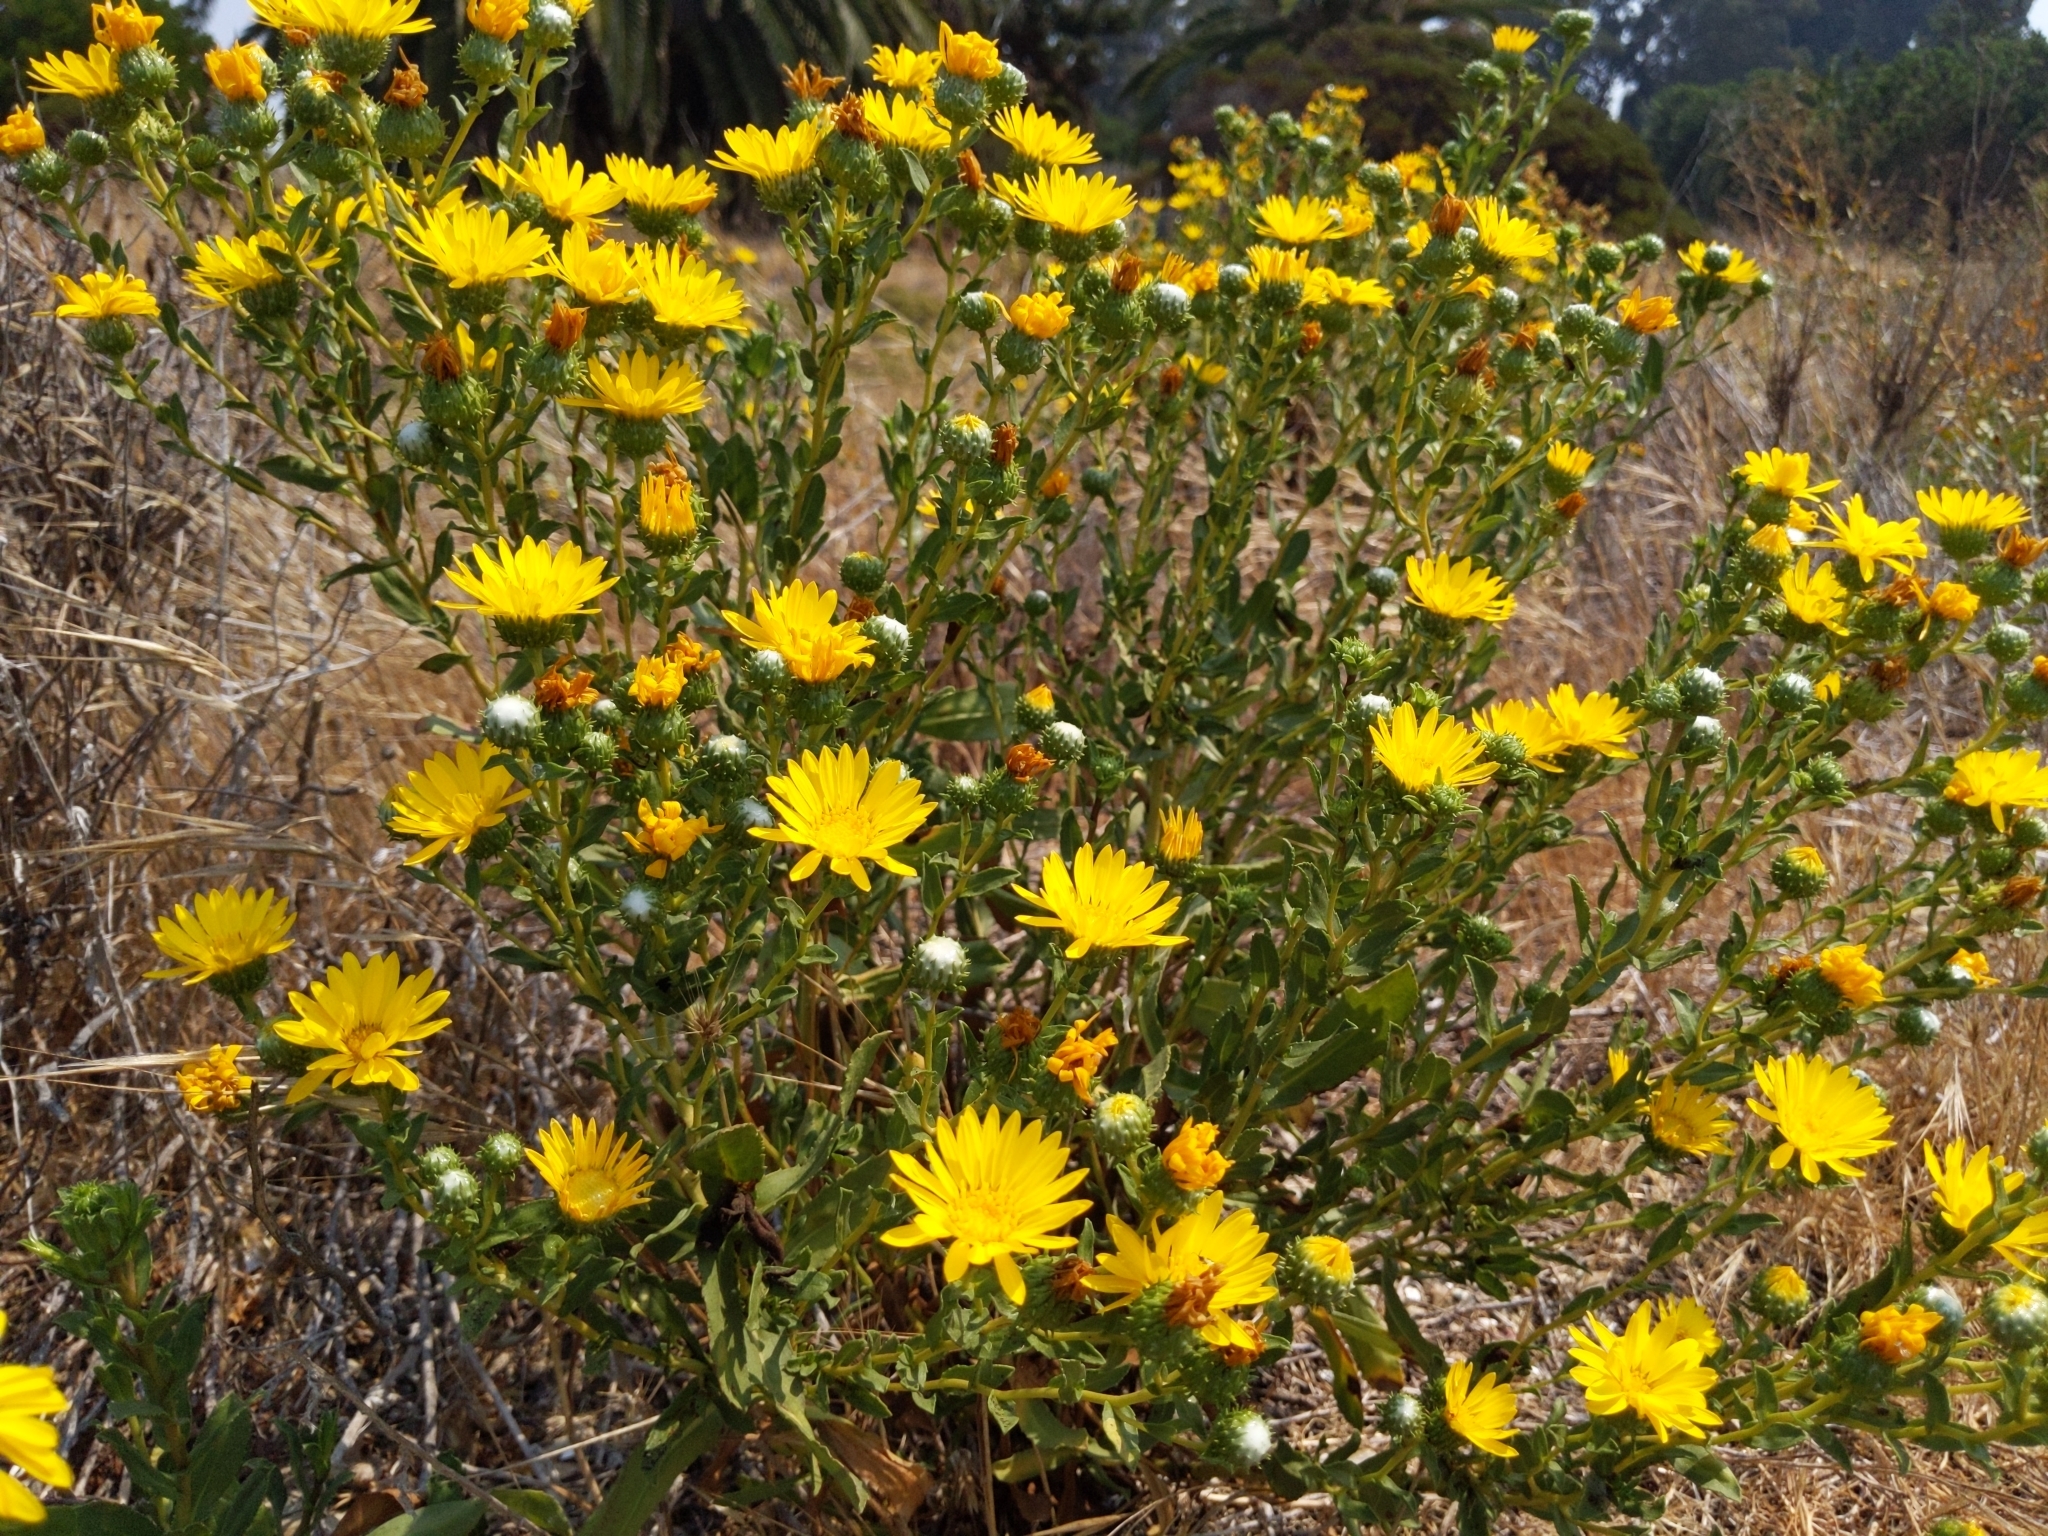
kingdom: Plantae
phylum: Tracheophyta
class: Magnoliopsida
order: Asterales
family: Asteraceae
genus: Grindelia
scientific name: Grindelia hirsutula
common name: Hairy gumweed
